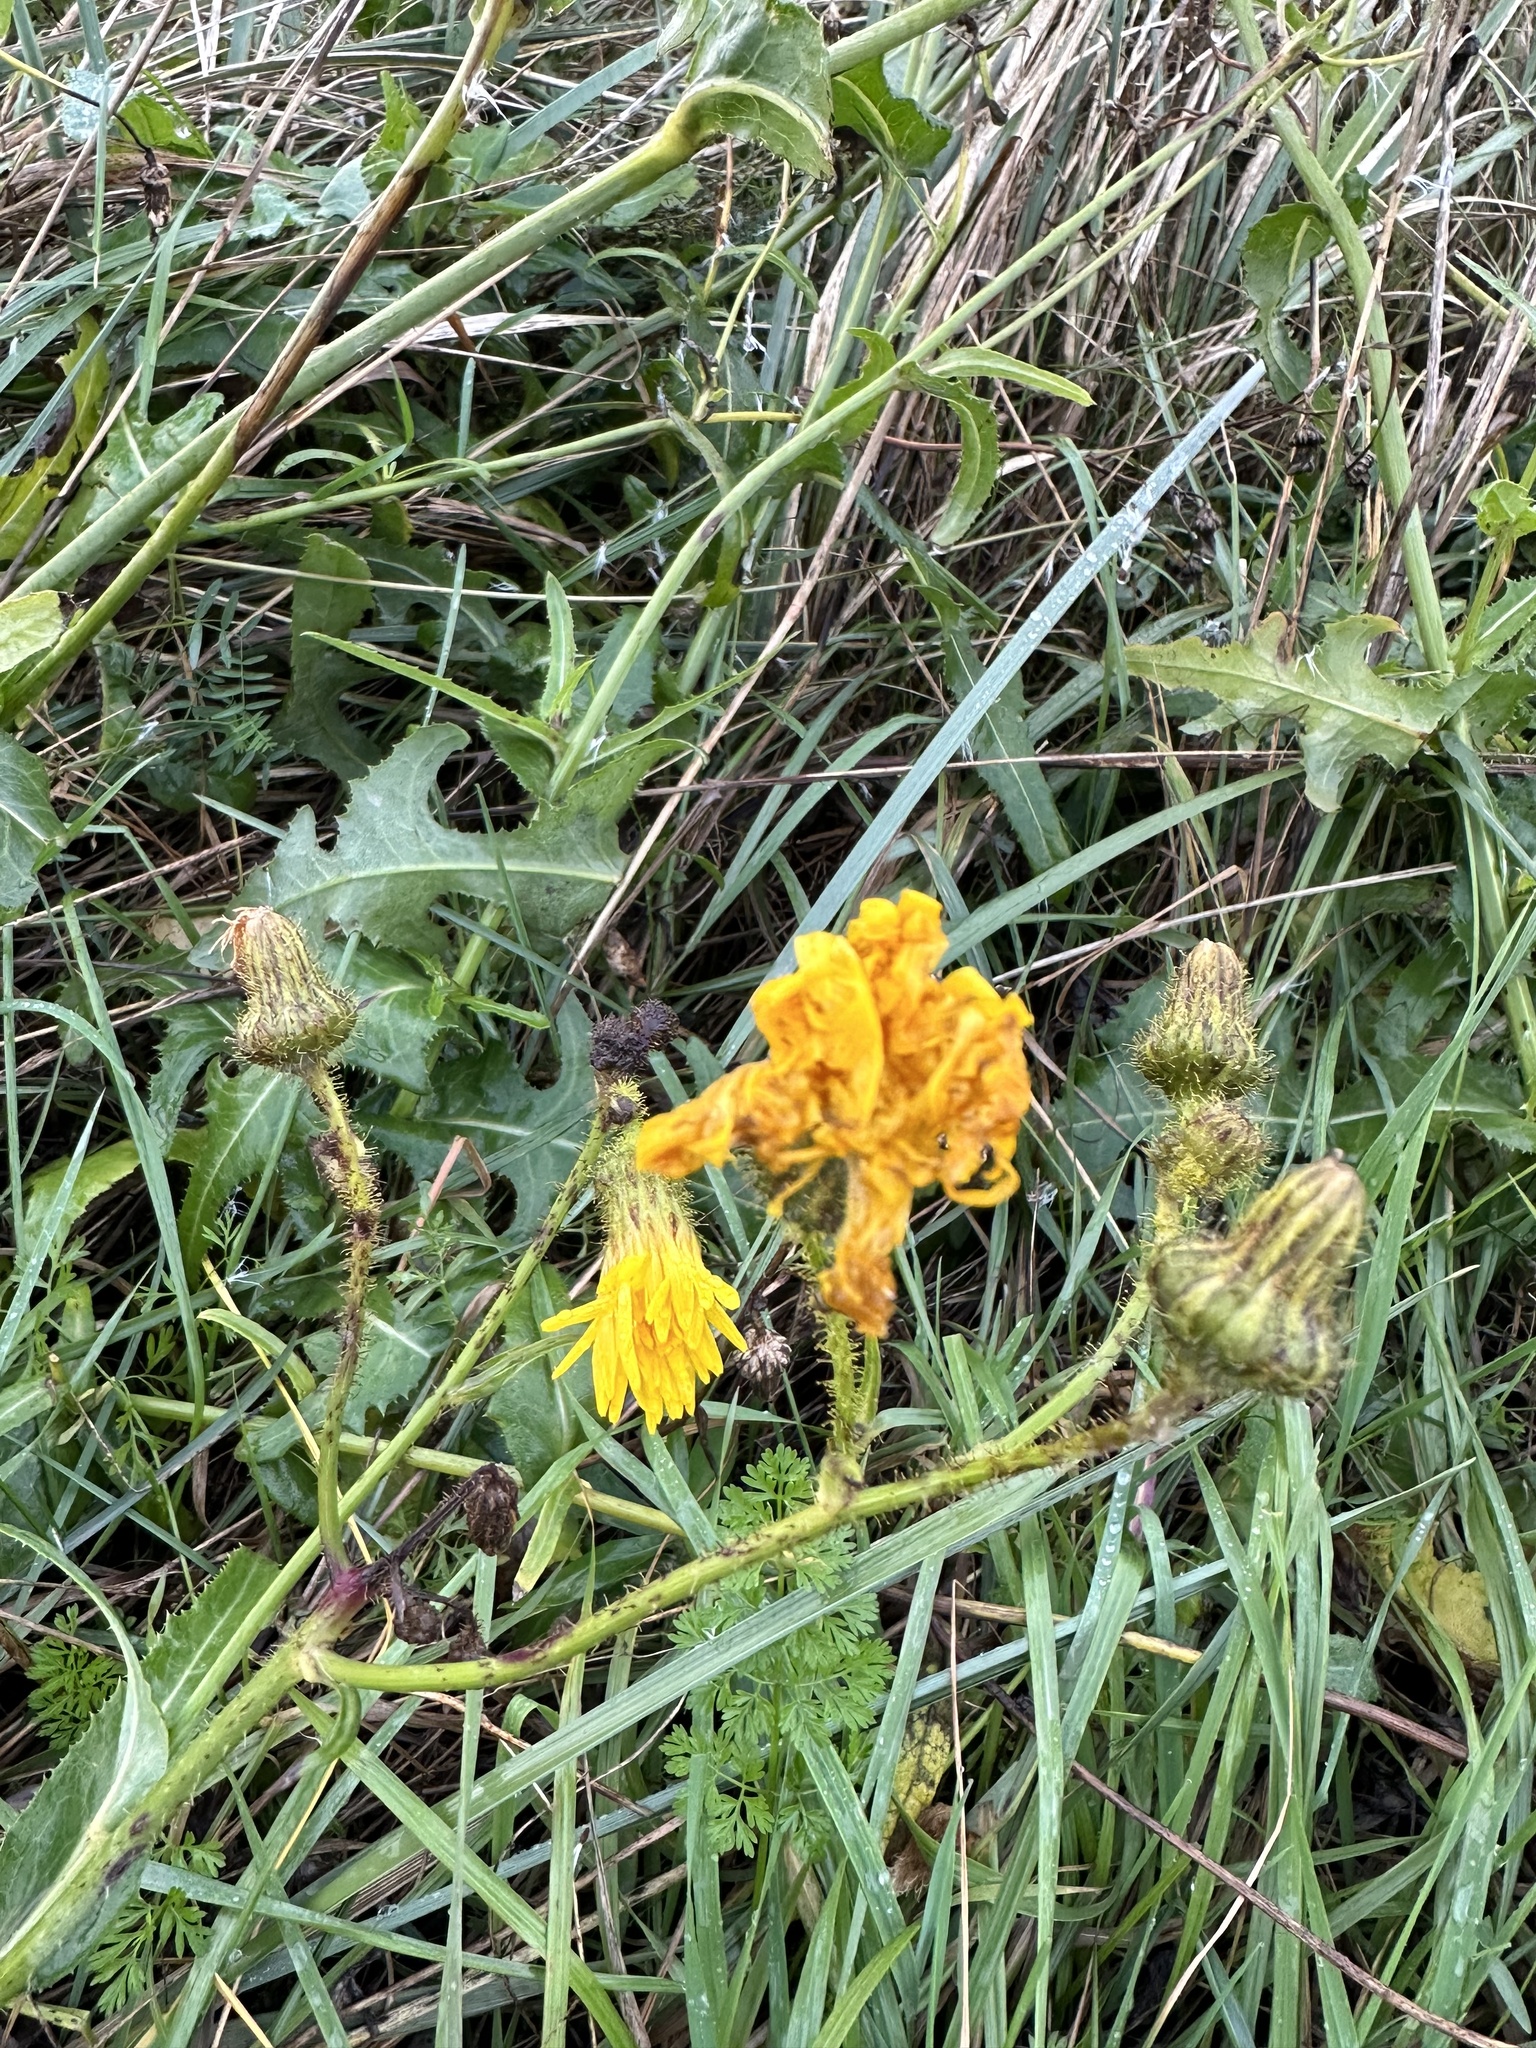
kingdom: Plantae
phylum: Tracheophyta
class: Magnoliopsida
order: Asterales
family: Asteraceae
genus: Sonchus
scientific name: Sonchus arvensis
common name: Perennial sow-thistle
